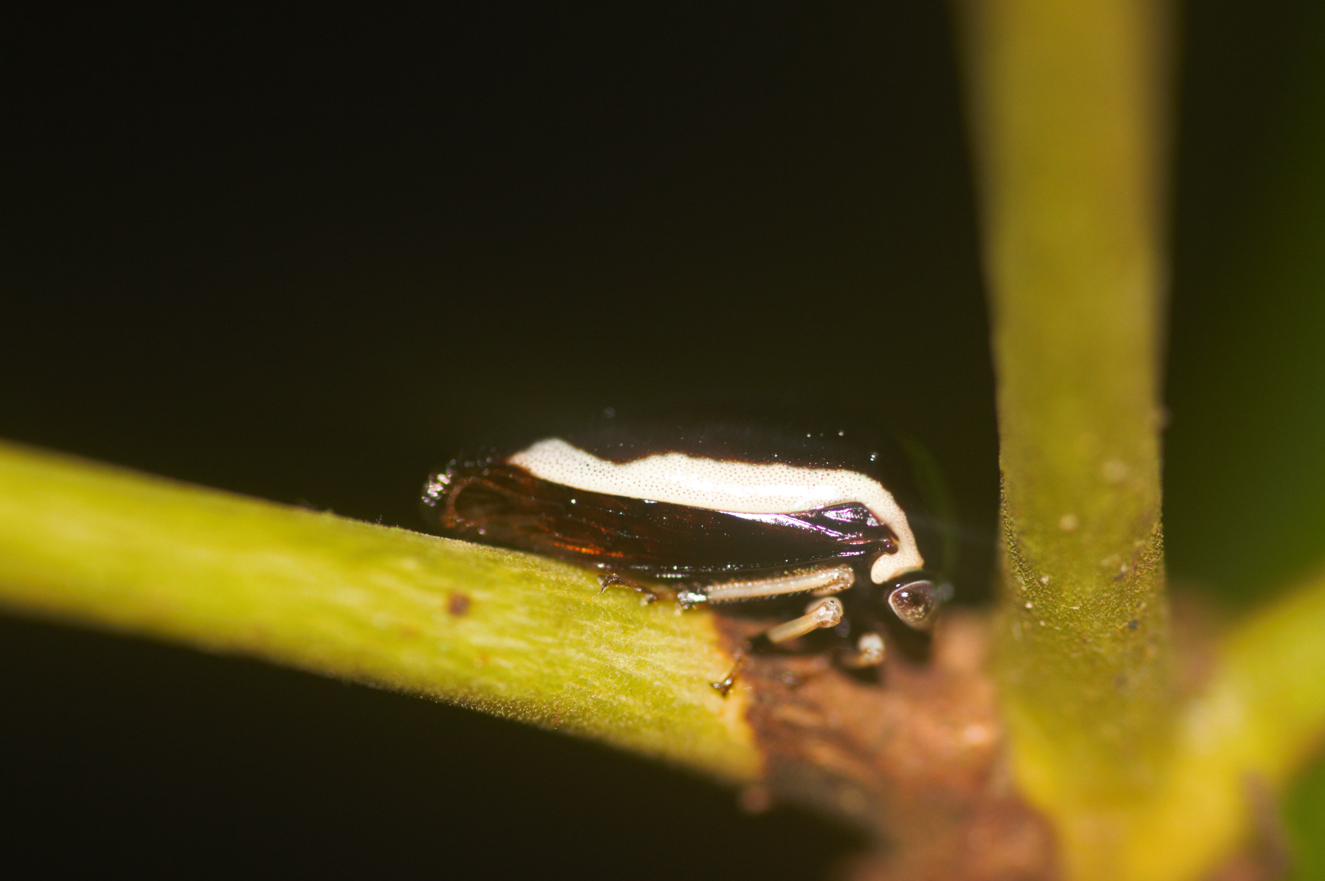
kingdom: Animalia
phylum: Arthropoda
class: Insecta
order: Hemiptera
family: Membracidae
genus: Darnis
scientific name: Darnis lateralis
